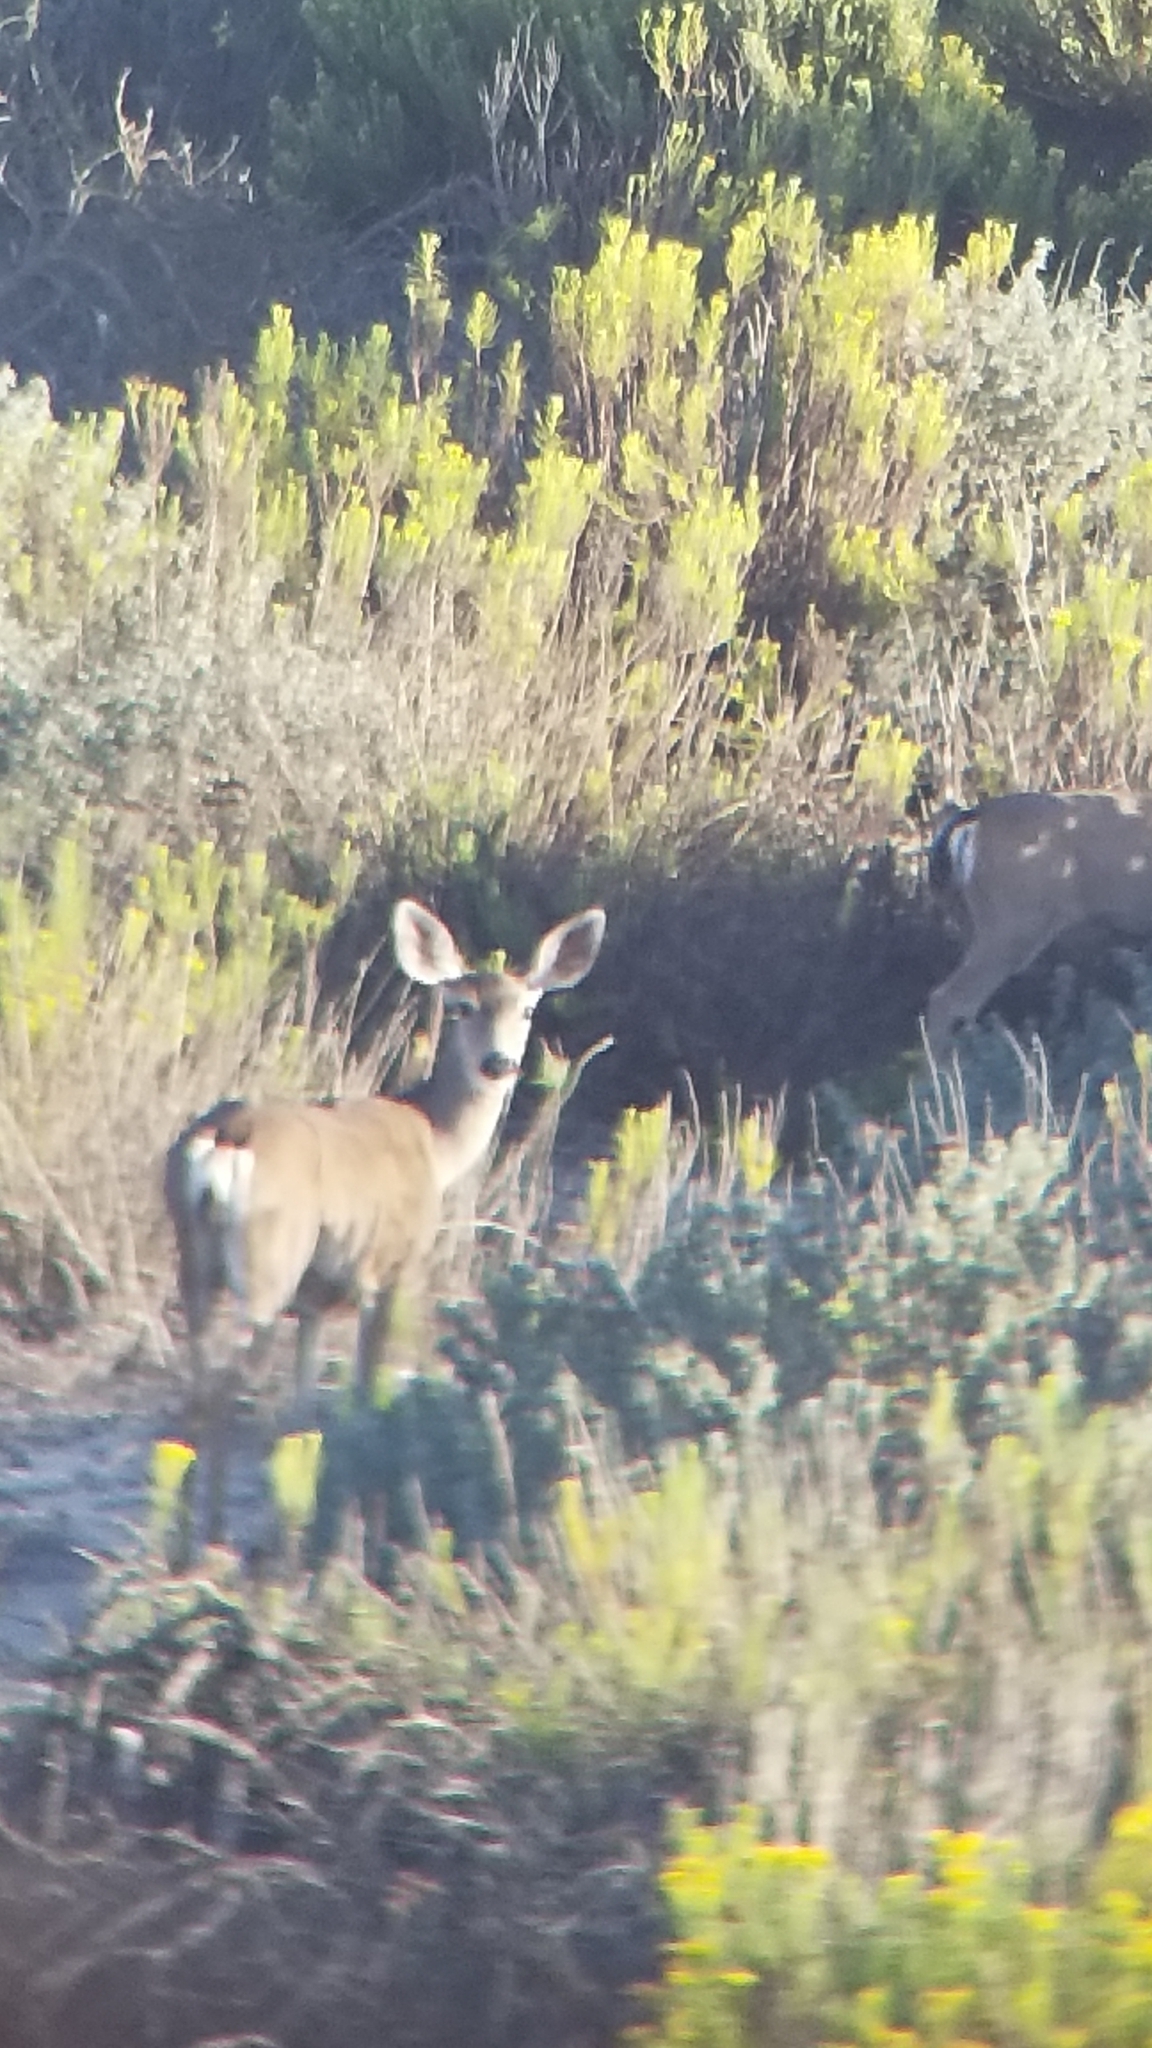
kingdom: Animalia
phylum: Chordata
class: Mammalia
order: Artiodactyla
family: Cervidae
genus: Odocoileus
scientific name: Odocoileus hemionus
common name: Mule deer
